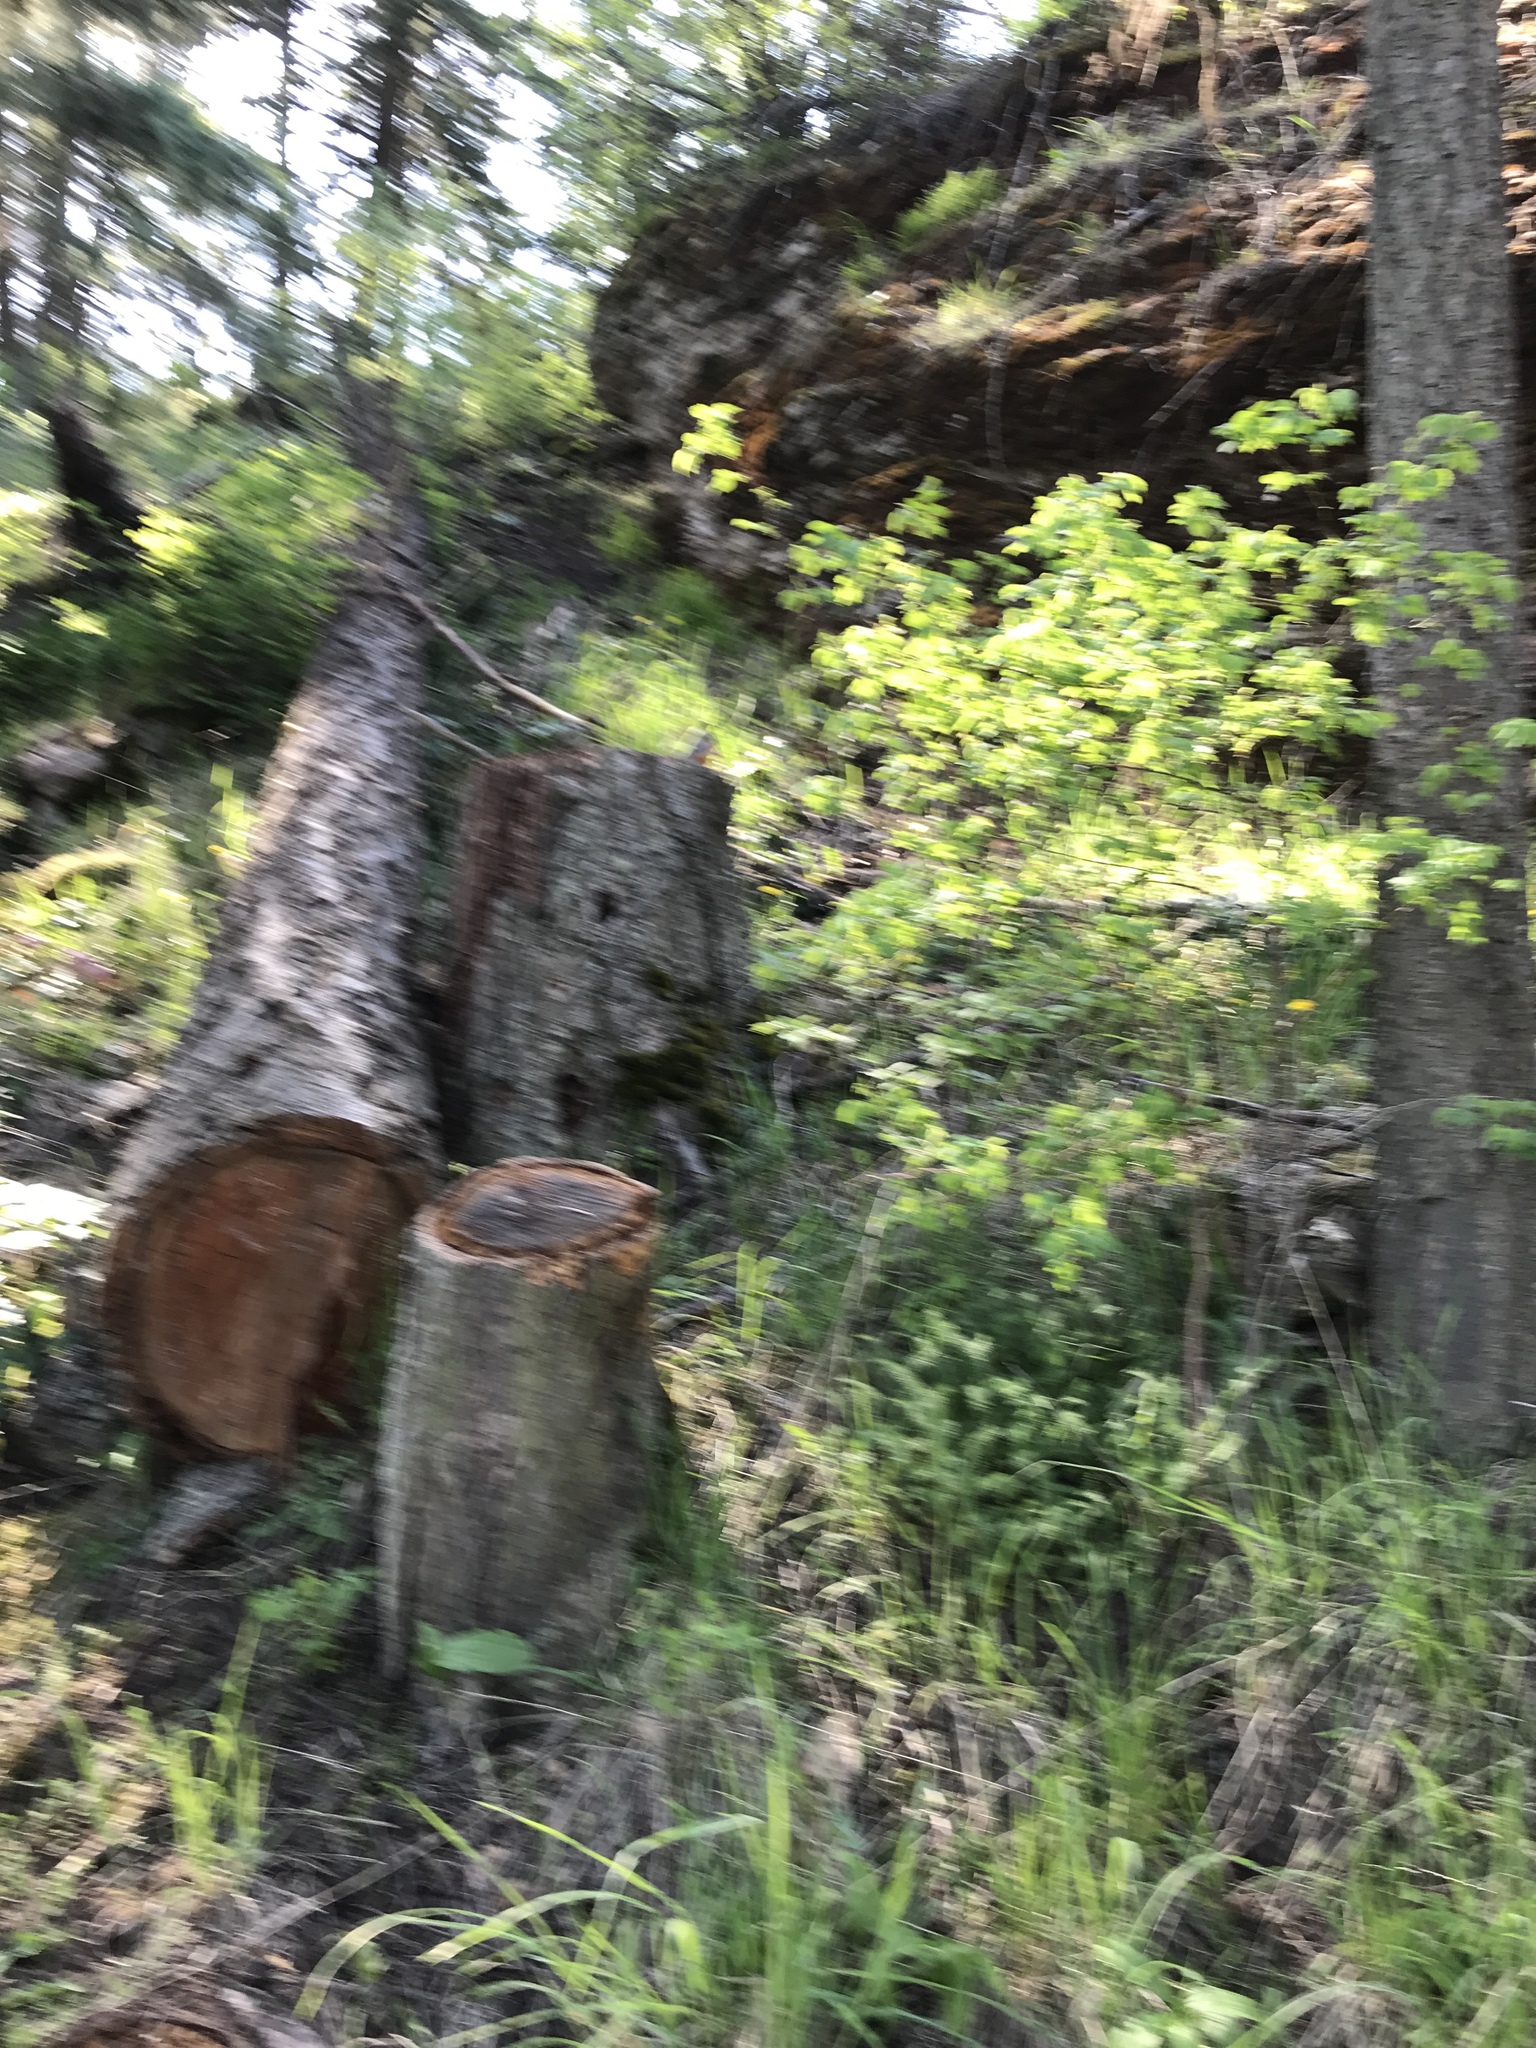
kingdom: Animalia
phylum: Chordata
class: Aves
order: Passeriformes
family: Turdidae
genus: Turdus
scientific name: Turdus migratorius
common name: American robin
